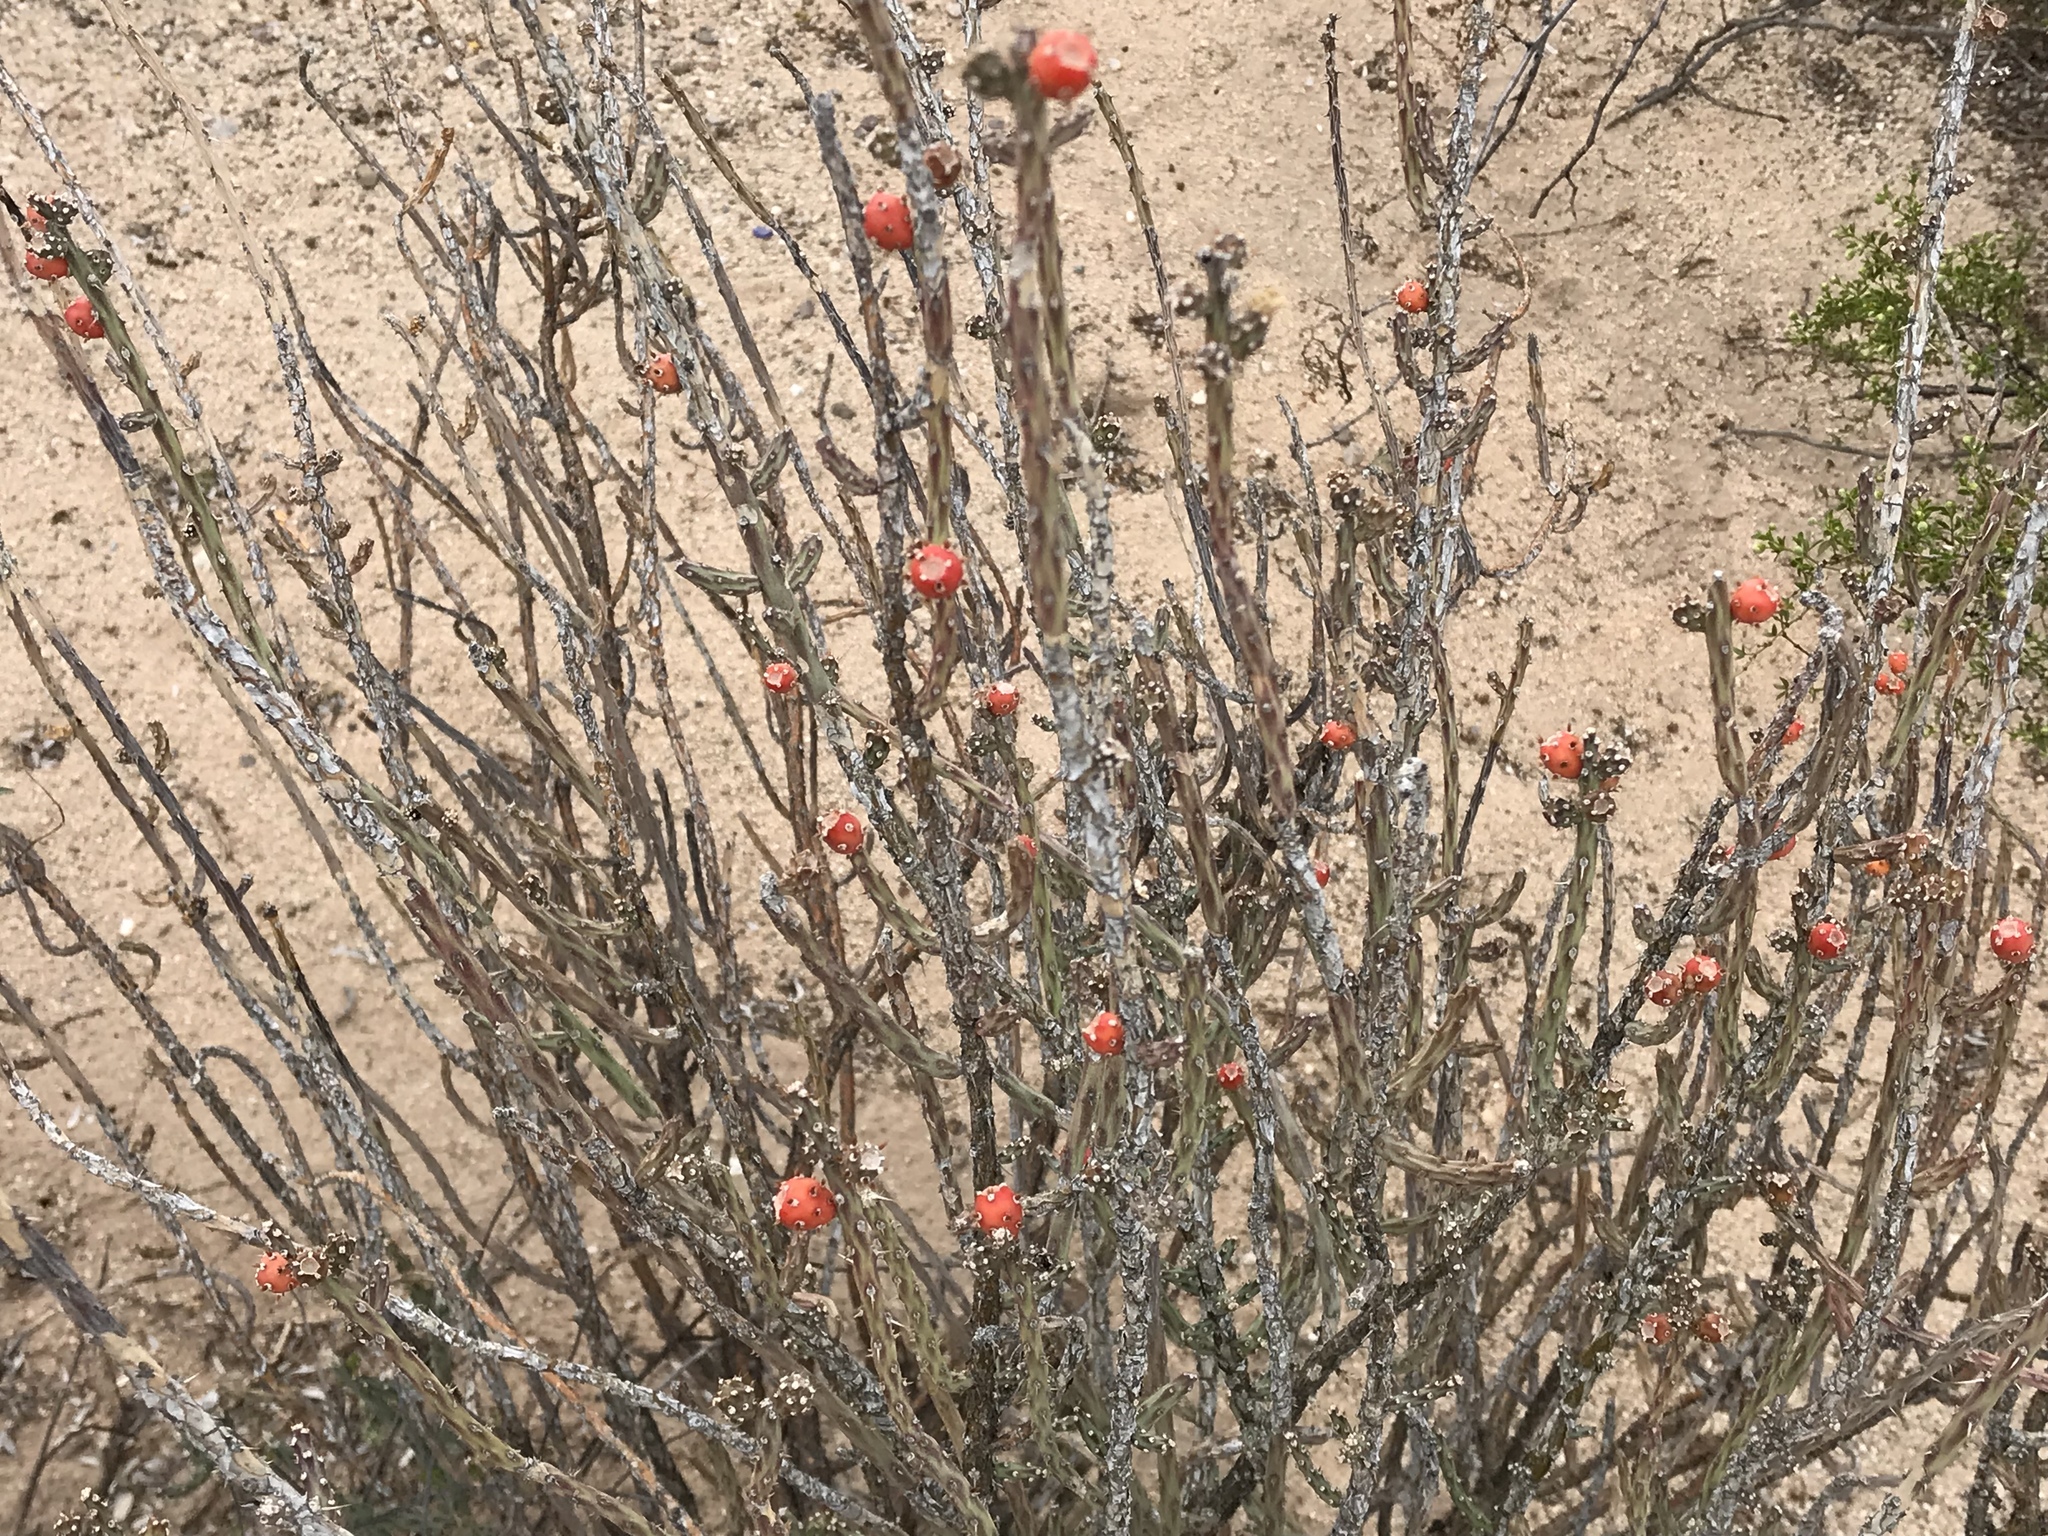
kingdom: Plantae
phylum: Tracheophyta
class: Magnoliopsida
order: Caryophyllales
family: Cactaceae
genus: Cylindropuntia
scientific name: Cylindropuntia leptocaulis
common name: Christmas cactus
